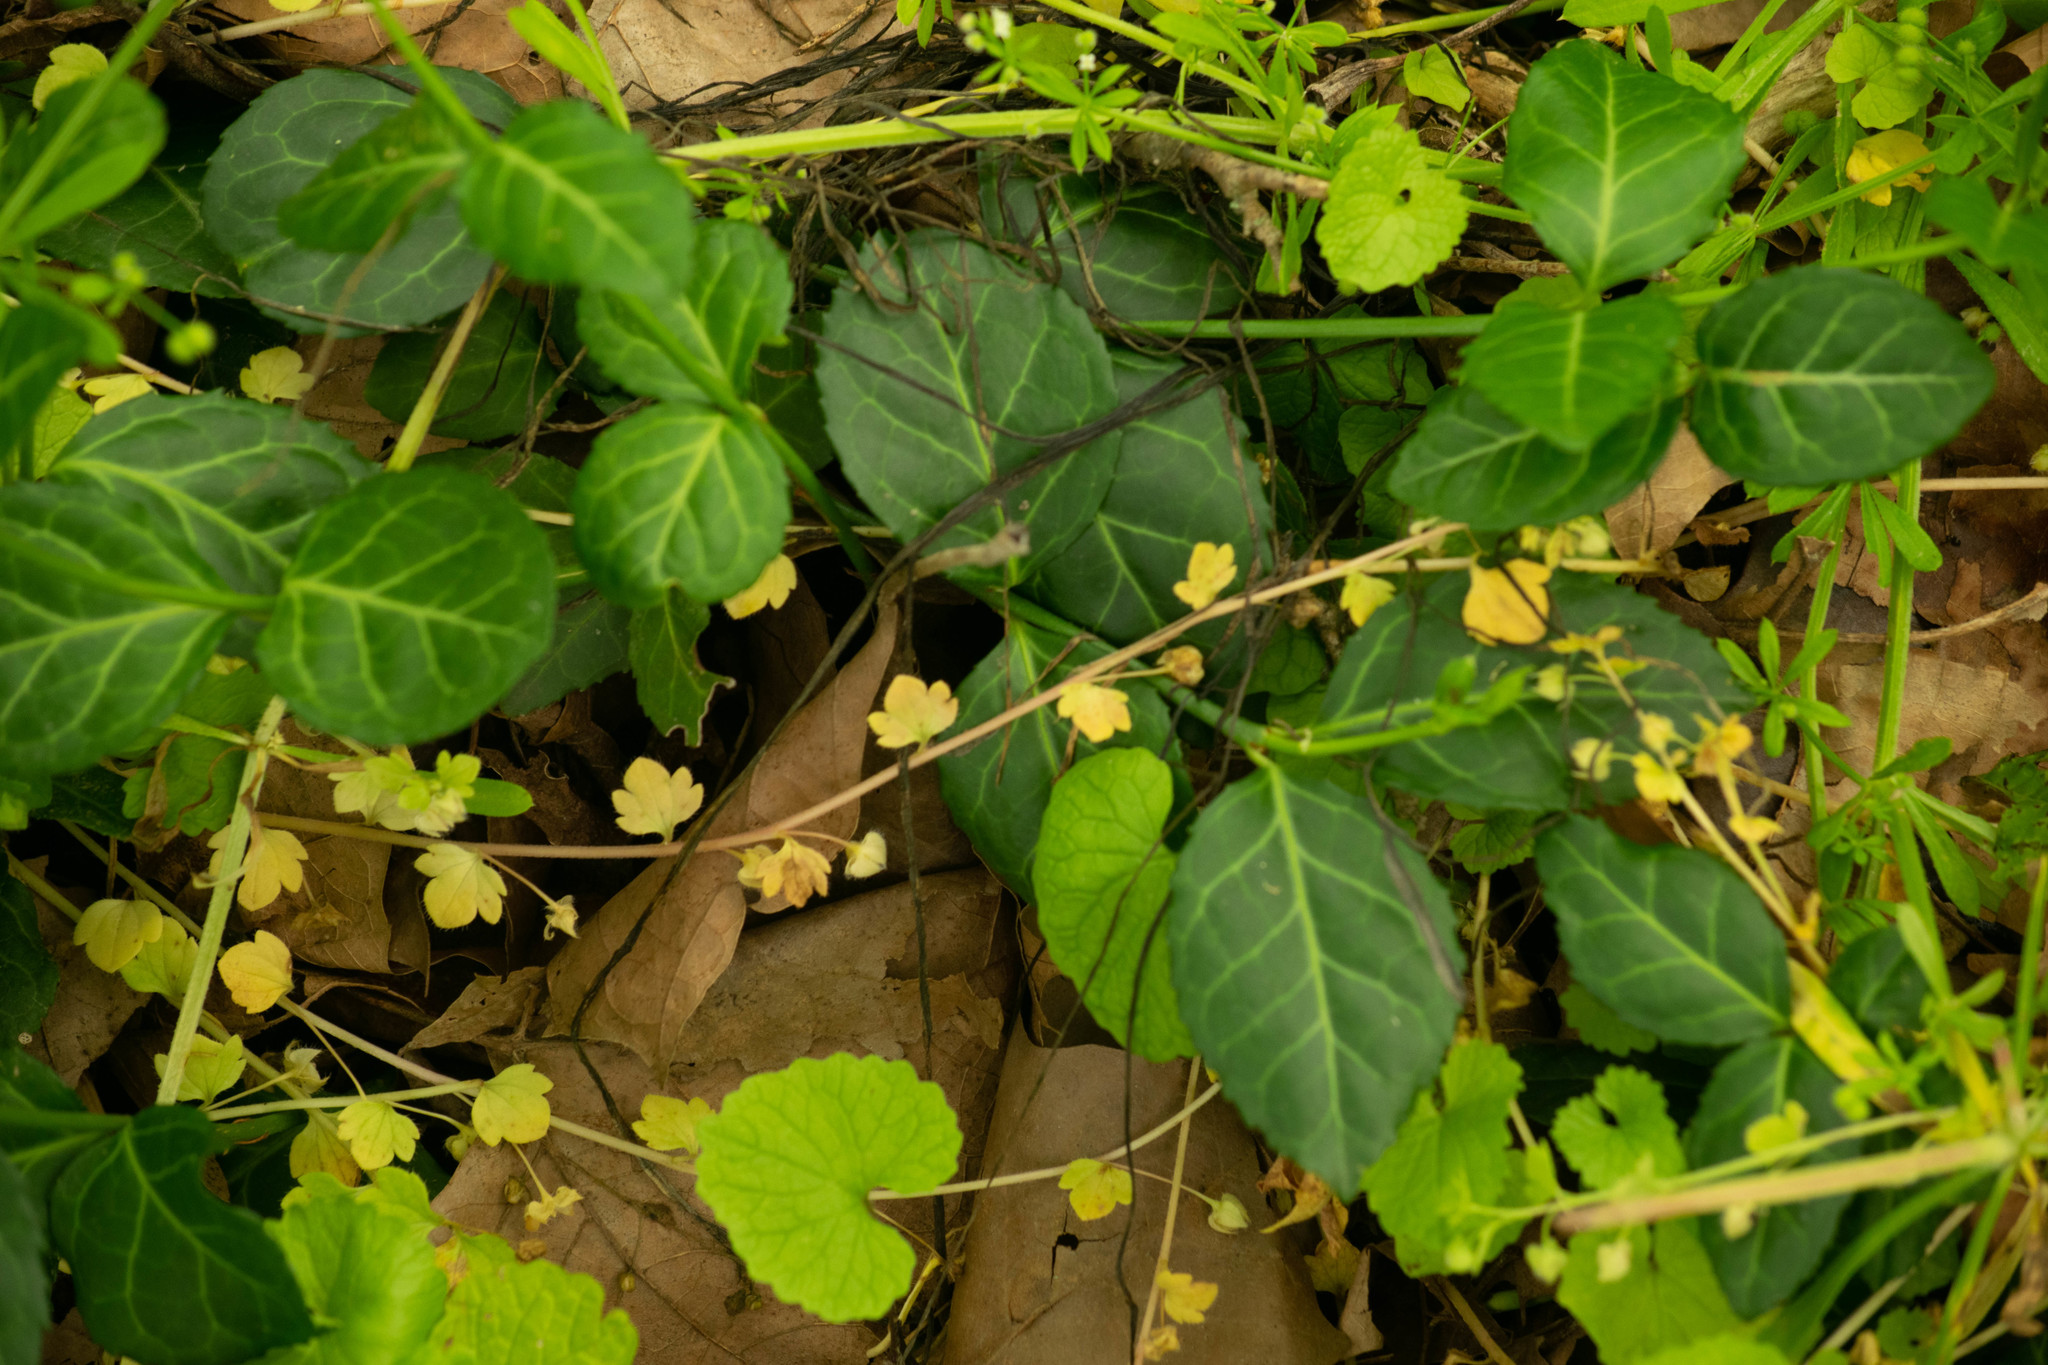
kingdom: Plantae
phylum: Tracheophyta
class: Magnoliopsida
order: Celastrales
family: Celastraceae
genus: Euonymus
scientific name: Euonymus fortunei
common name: Climbing euonymus
